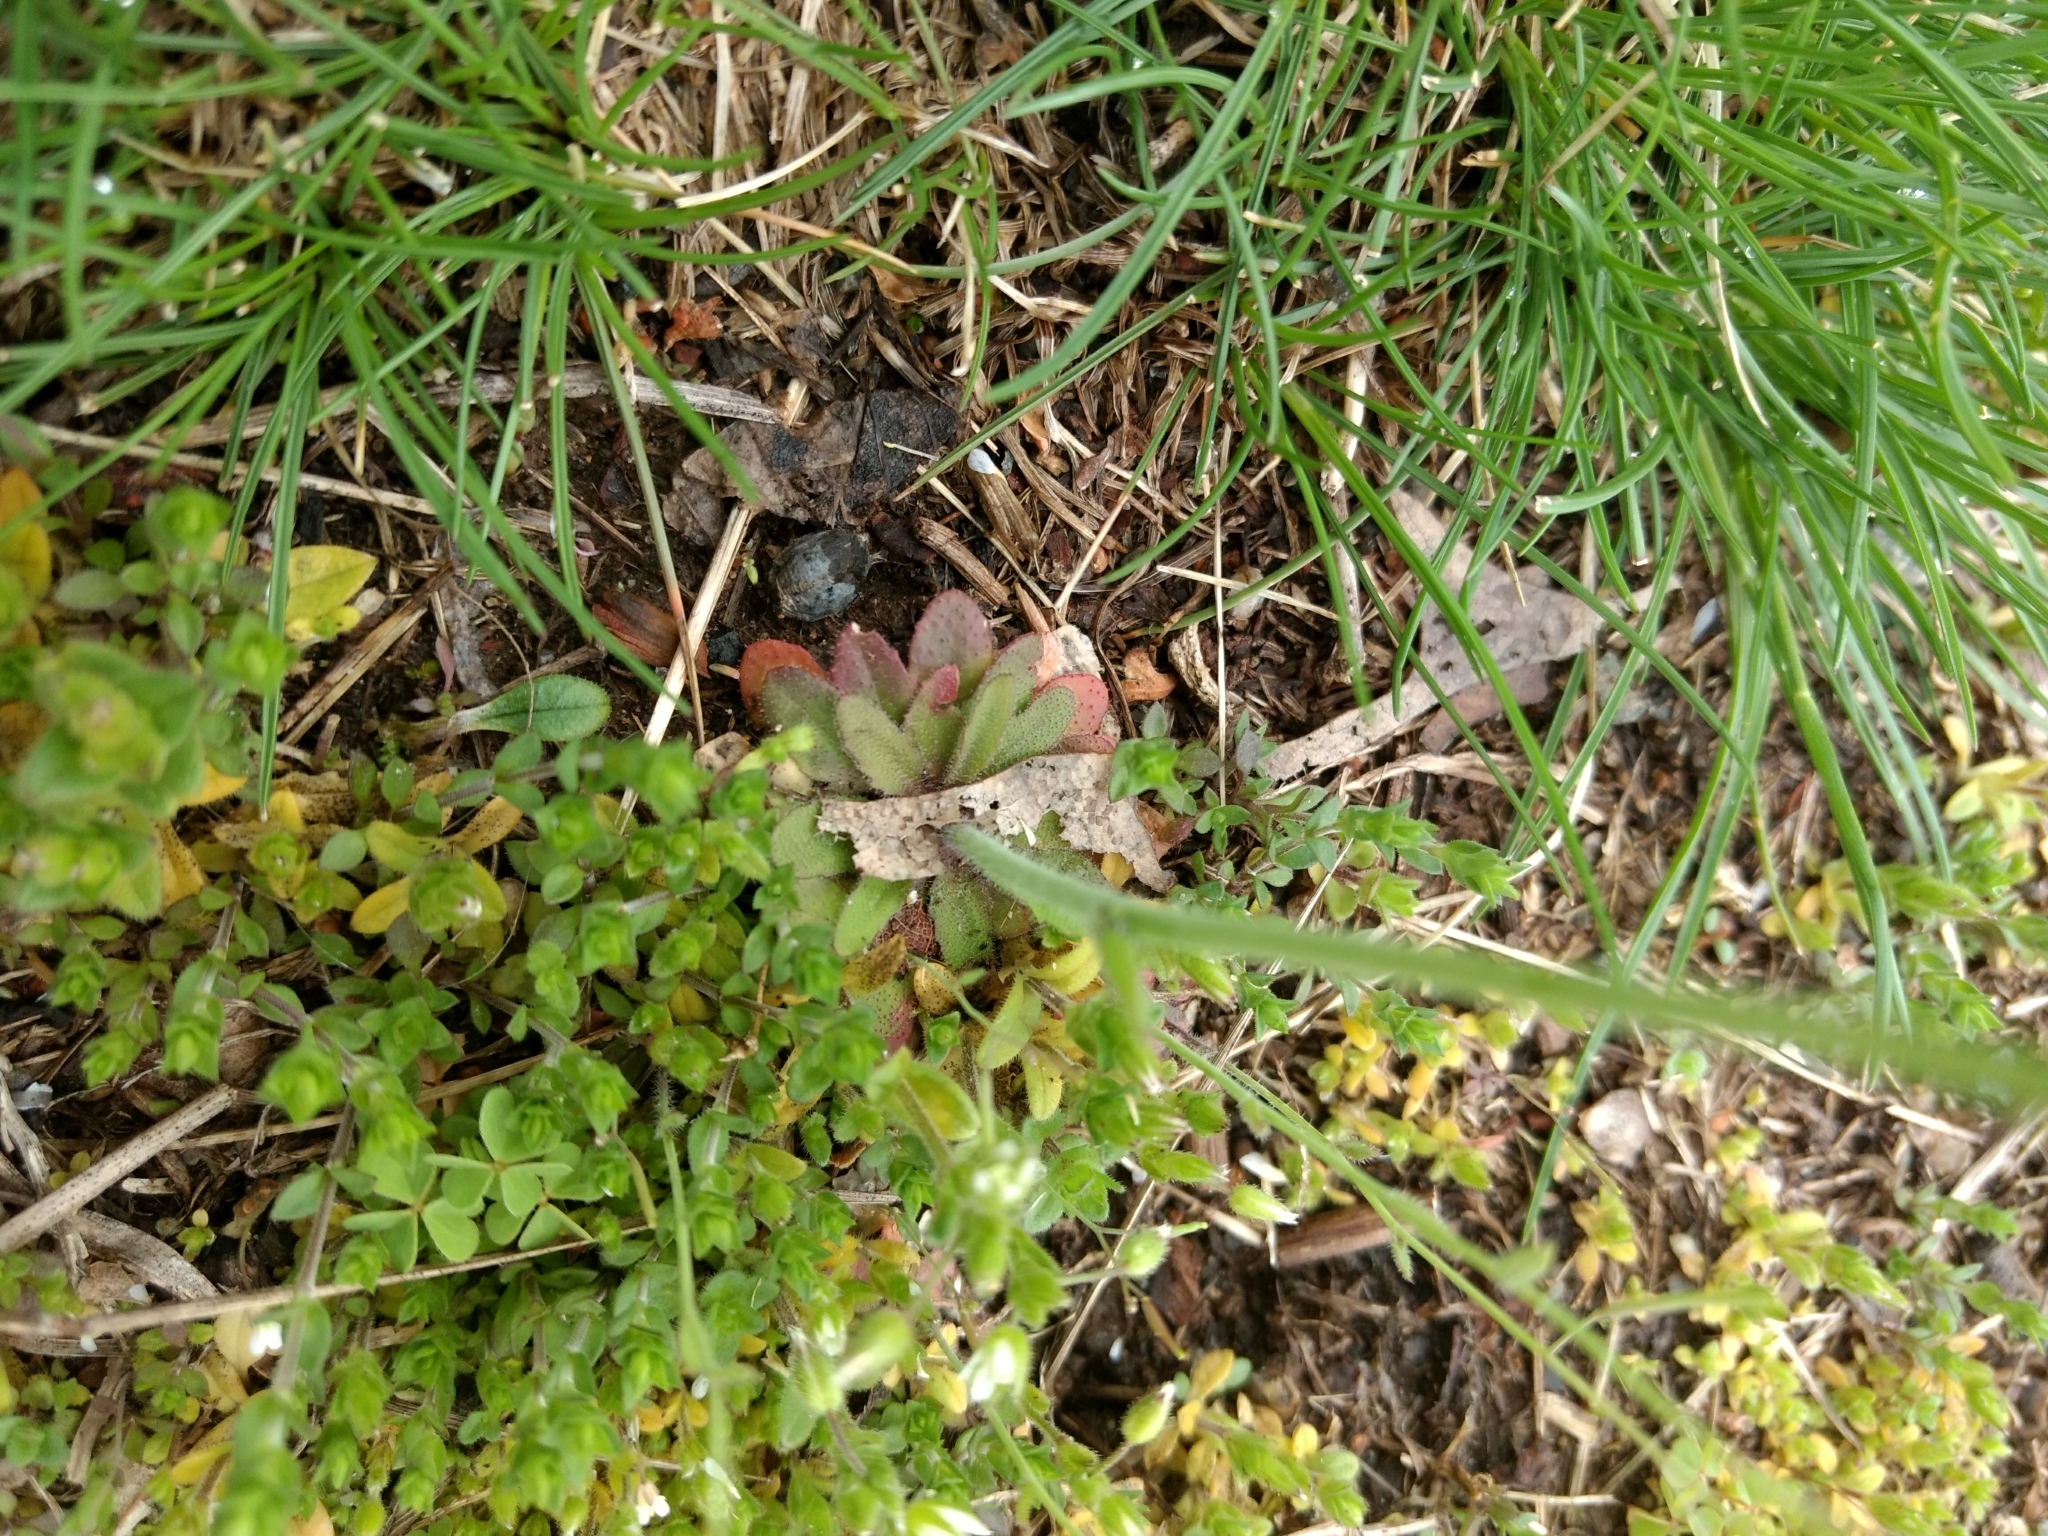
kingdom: Plantae
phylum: Tracheophyta
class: Magnoliopsida
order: Brassicales
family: Brassicaceae
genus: Arabidopsis
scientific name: Arabidopsis thaliana
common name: Thale cress
